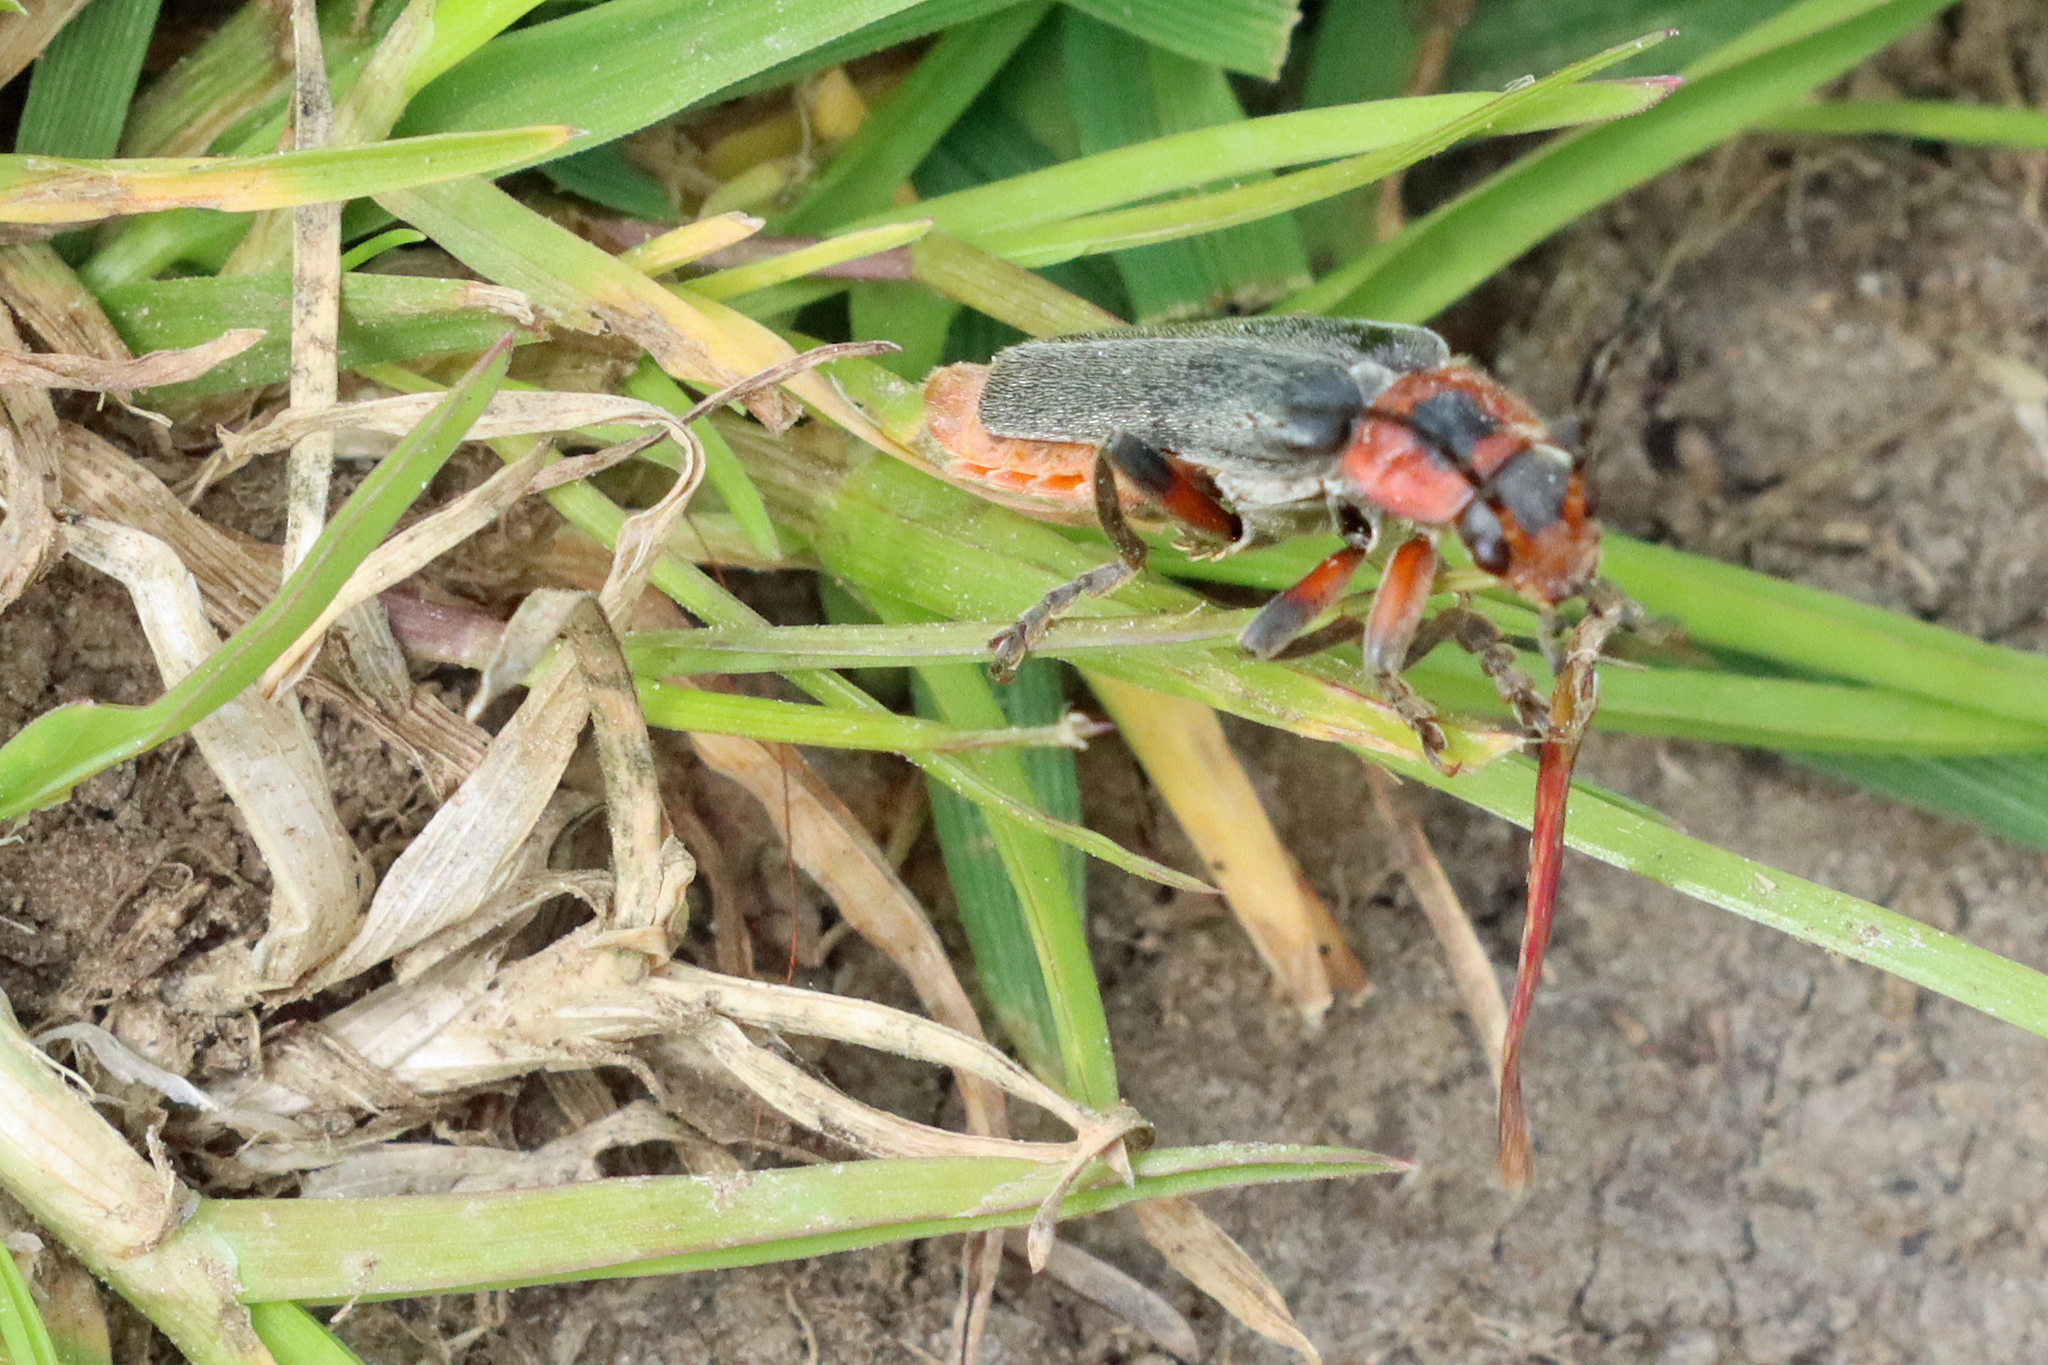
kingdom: Animalia
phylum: Arthropoda
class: Insecta
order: Coleoptera
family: Cantharidae
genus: Cantharis
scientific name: Cantharis rustica
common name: Soldier beetle
